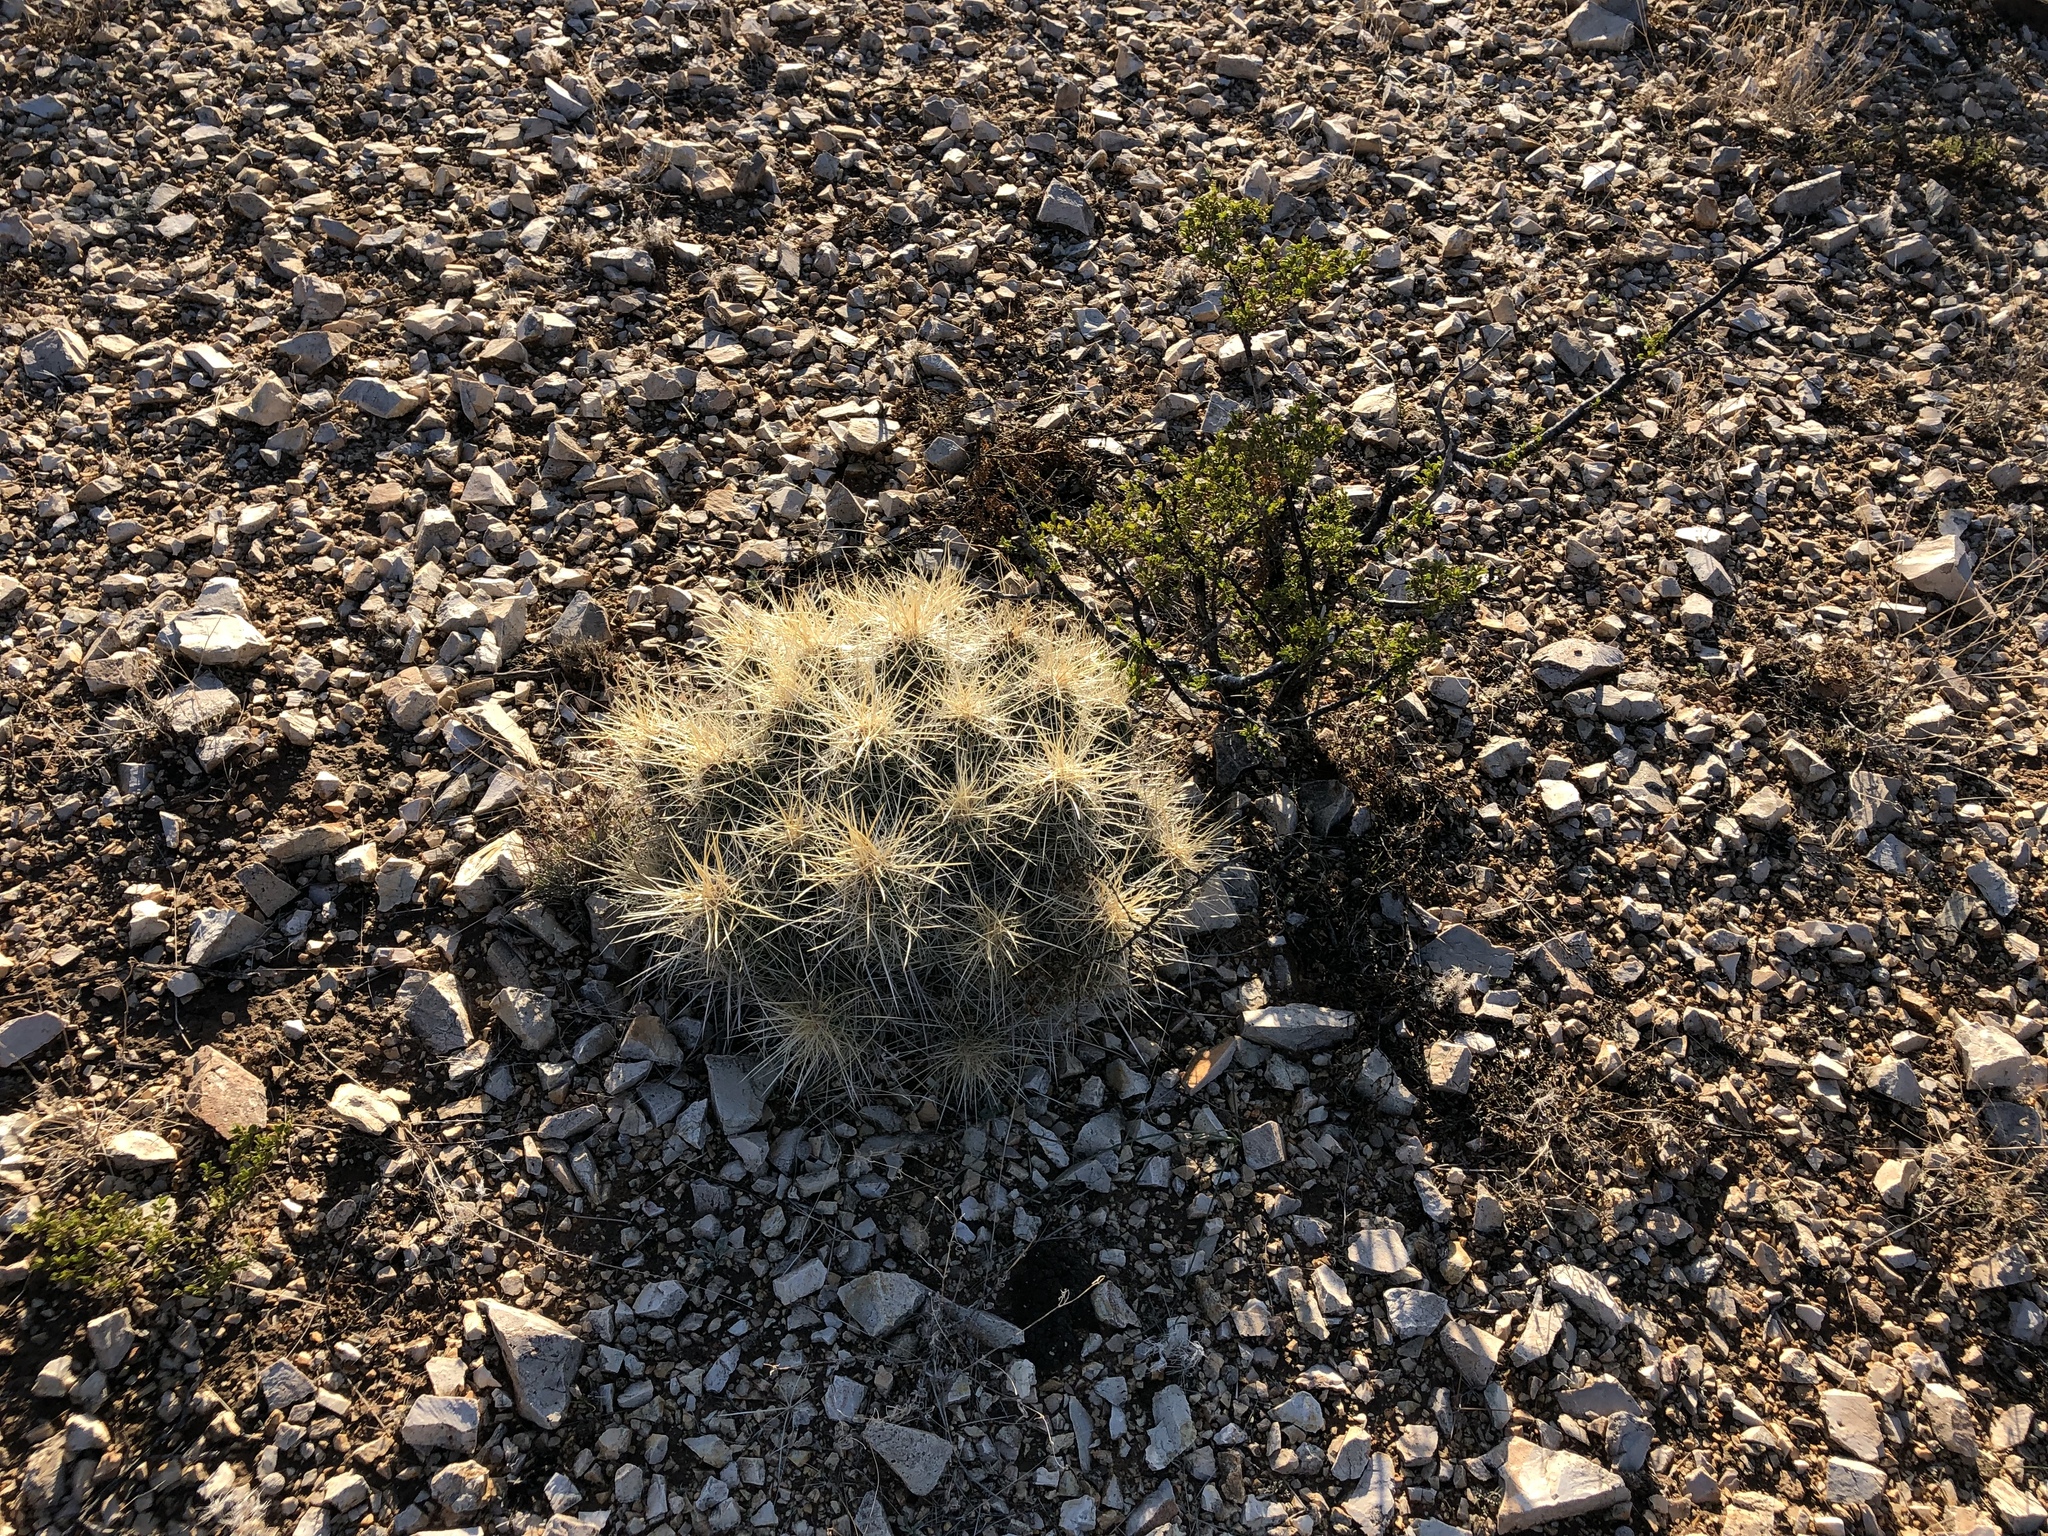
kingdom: Plantae
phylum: Tracheophyta
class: Magnoliopsida
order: Caryophyllales
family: Cactaceae
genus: Echinocereus
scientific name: Echinocereus stramineus
